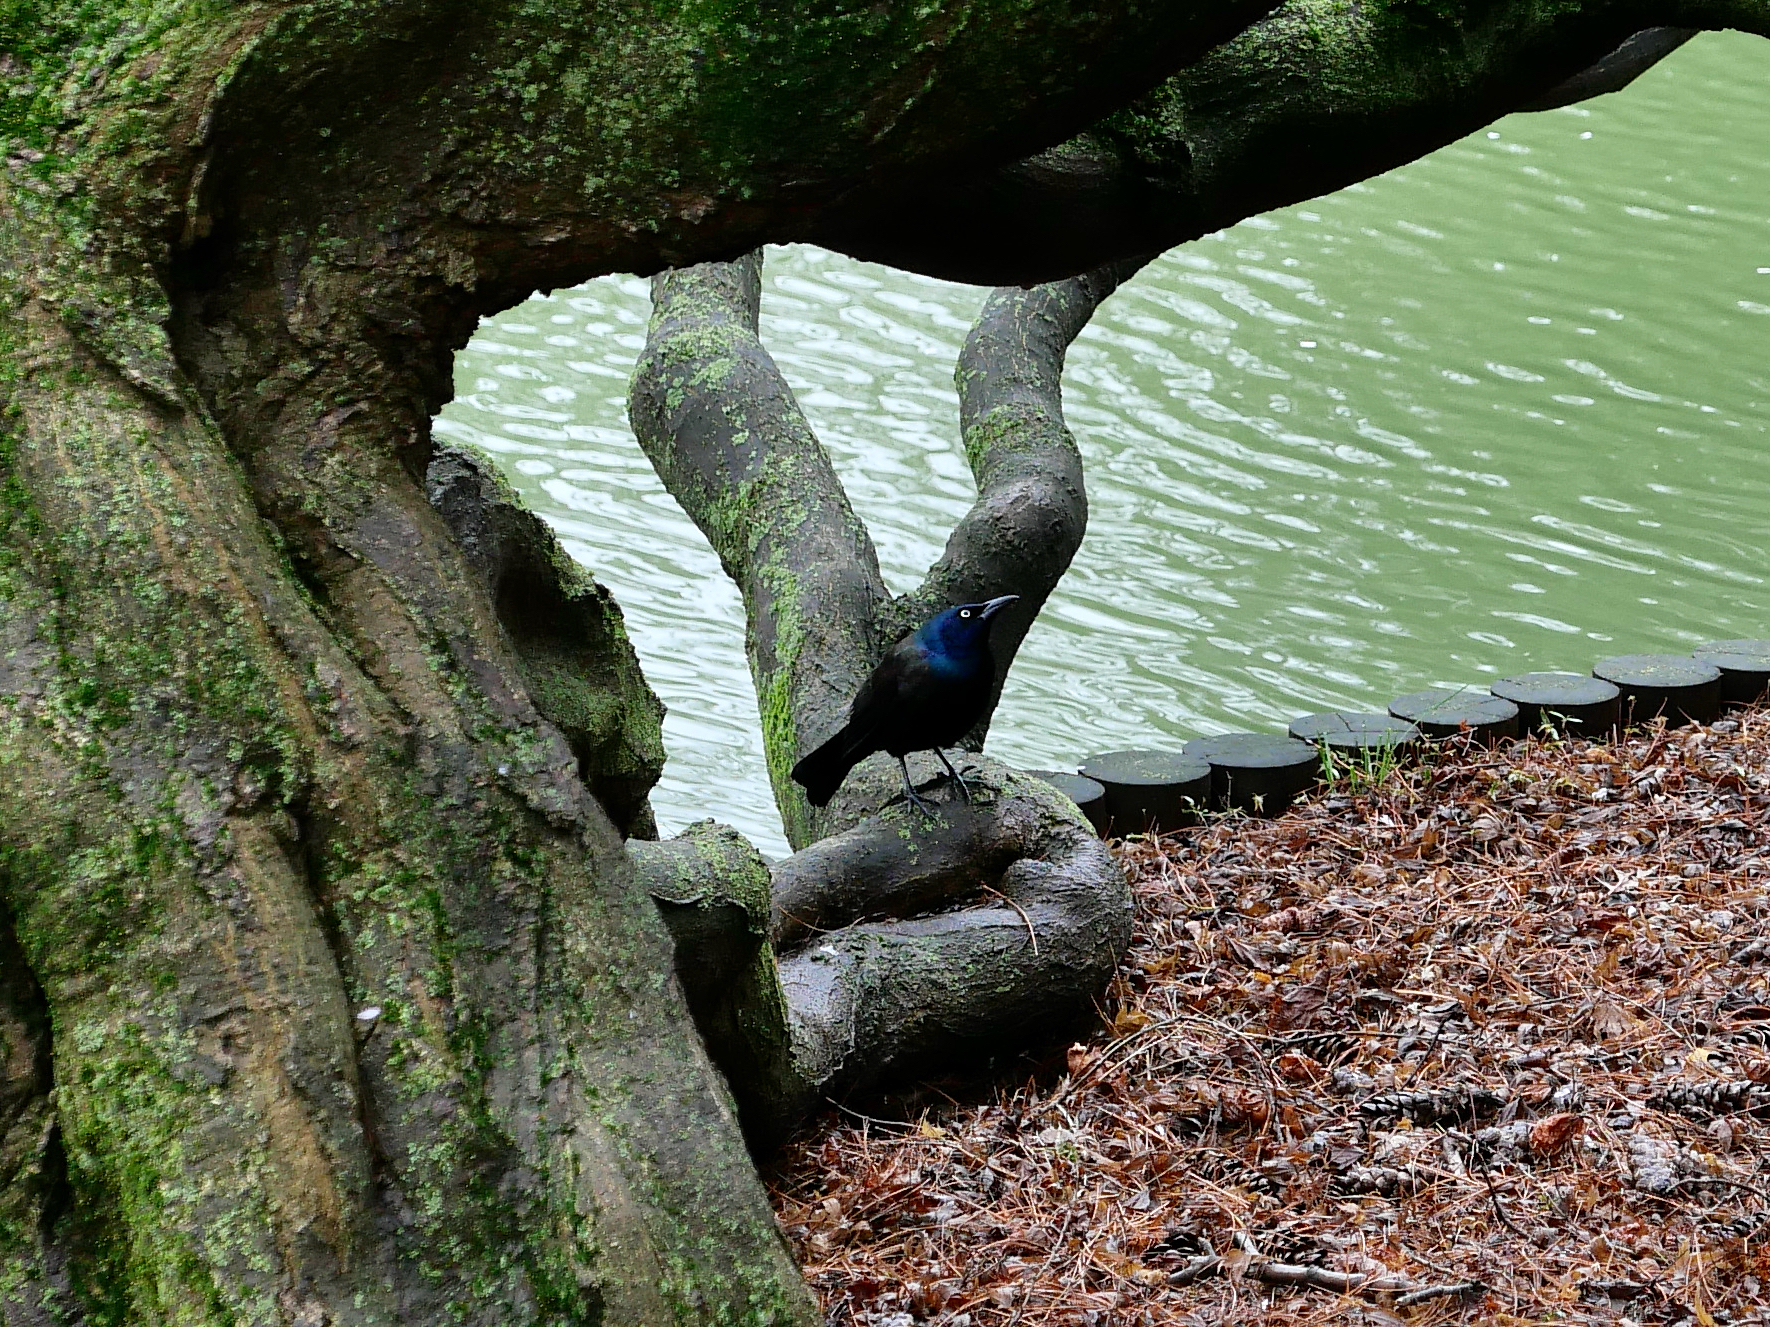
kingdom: Animalia
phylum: Chordata
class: Aves
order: Passeriformes
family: Icteridae
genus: Quiscalus
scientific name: Quiscalus quiscula
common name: Common grackle
